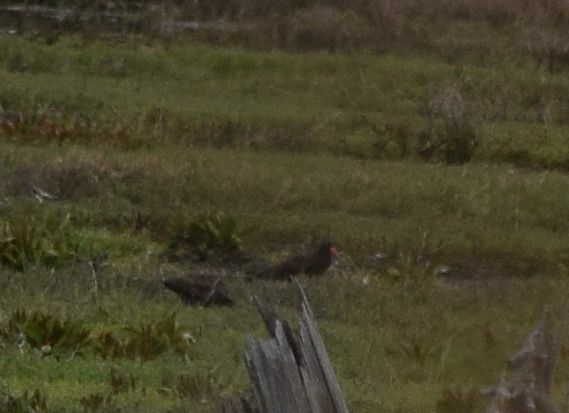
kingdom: Animalia
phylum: Chordata
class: Aves
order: Charadriiformes
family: Haematopodidae
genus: Haematopus
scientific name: Haematopus bachmani
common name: Black oystercatcher
